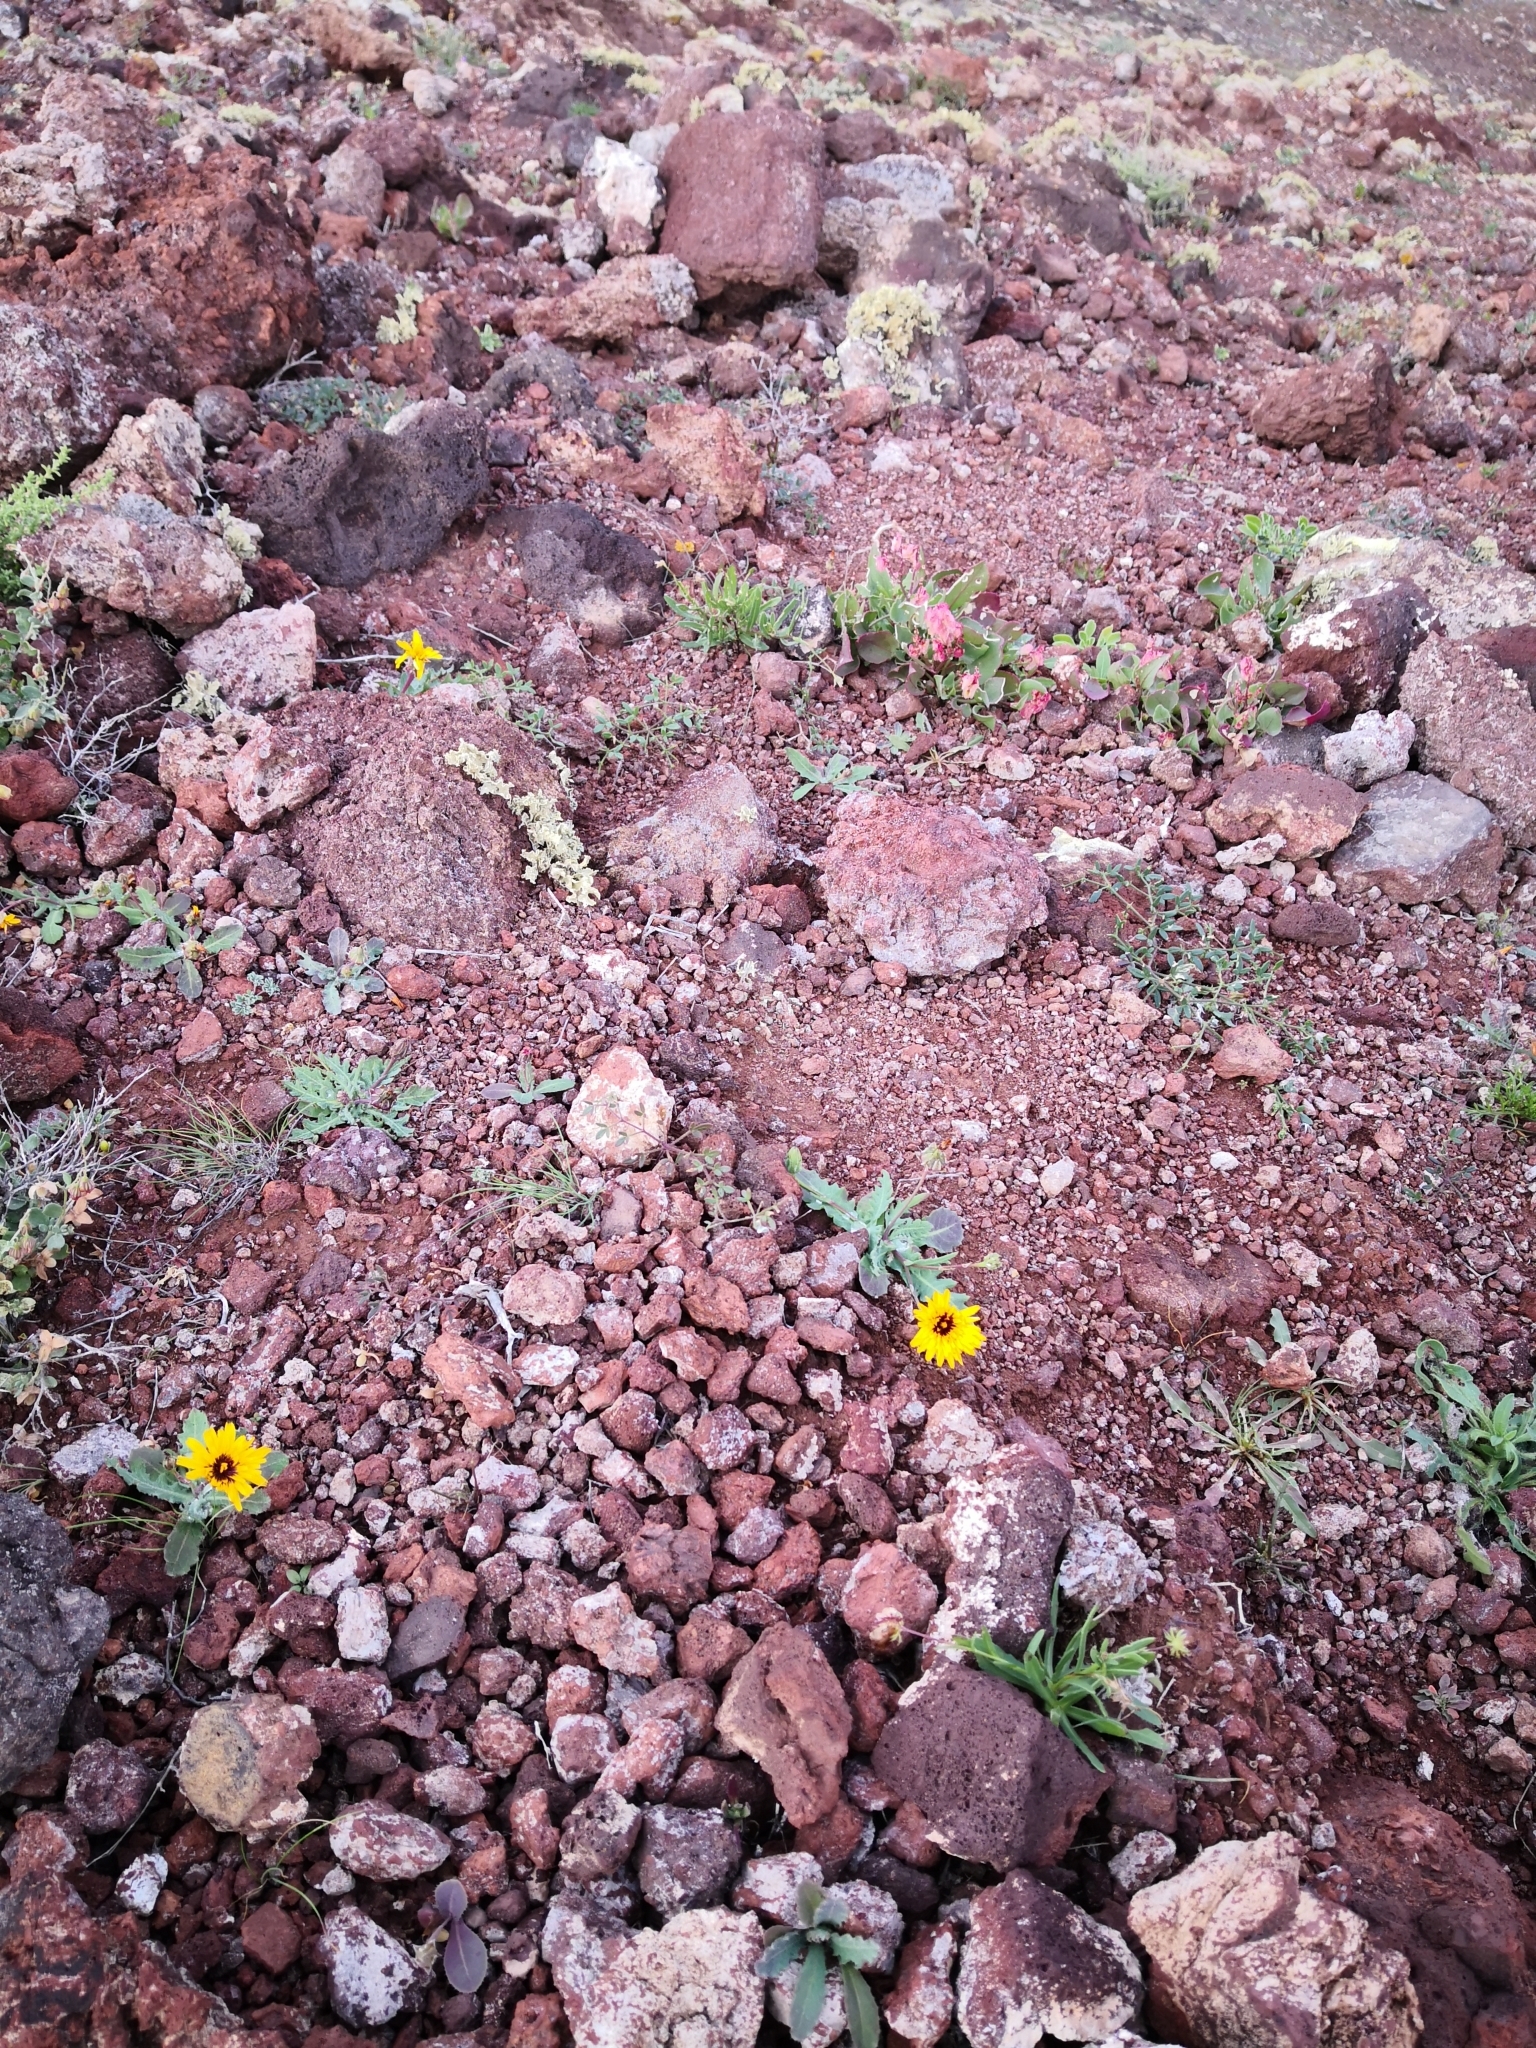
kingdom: Plantae
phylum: Tracheophyta
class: Magnoliopsida
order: Asterales
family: Asteraceae
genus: Reichardia
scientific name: Reichardia tingitana
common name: Reichardia
